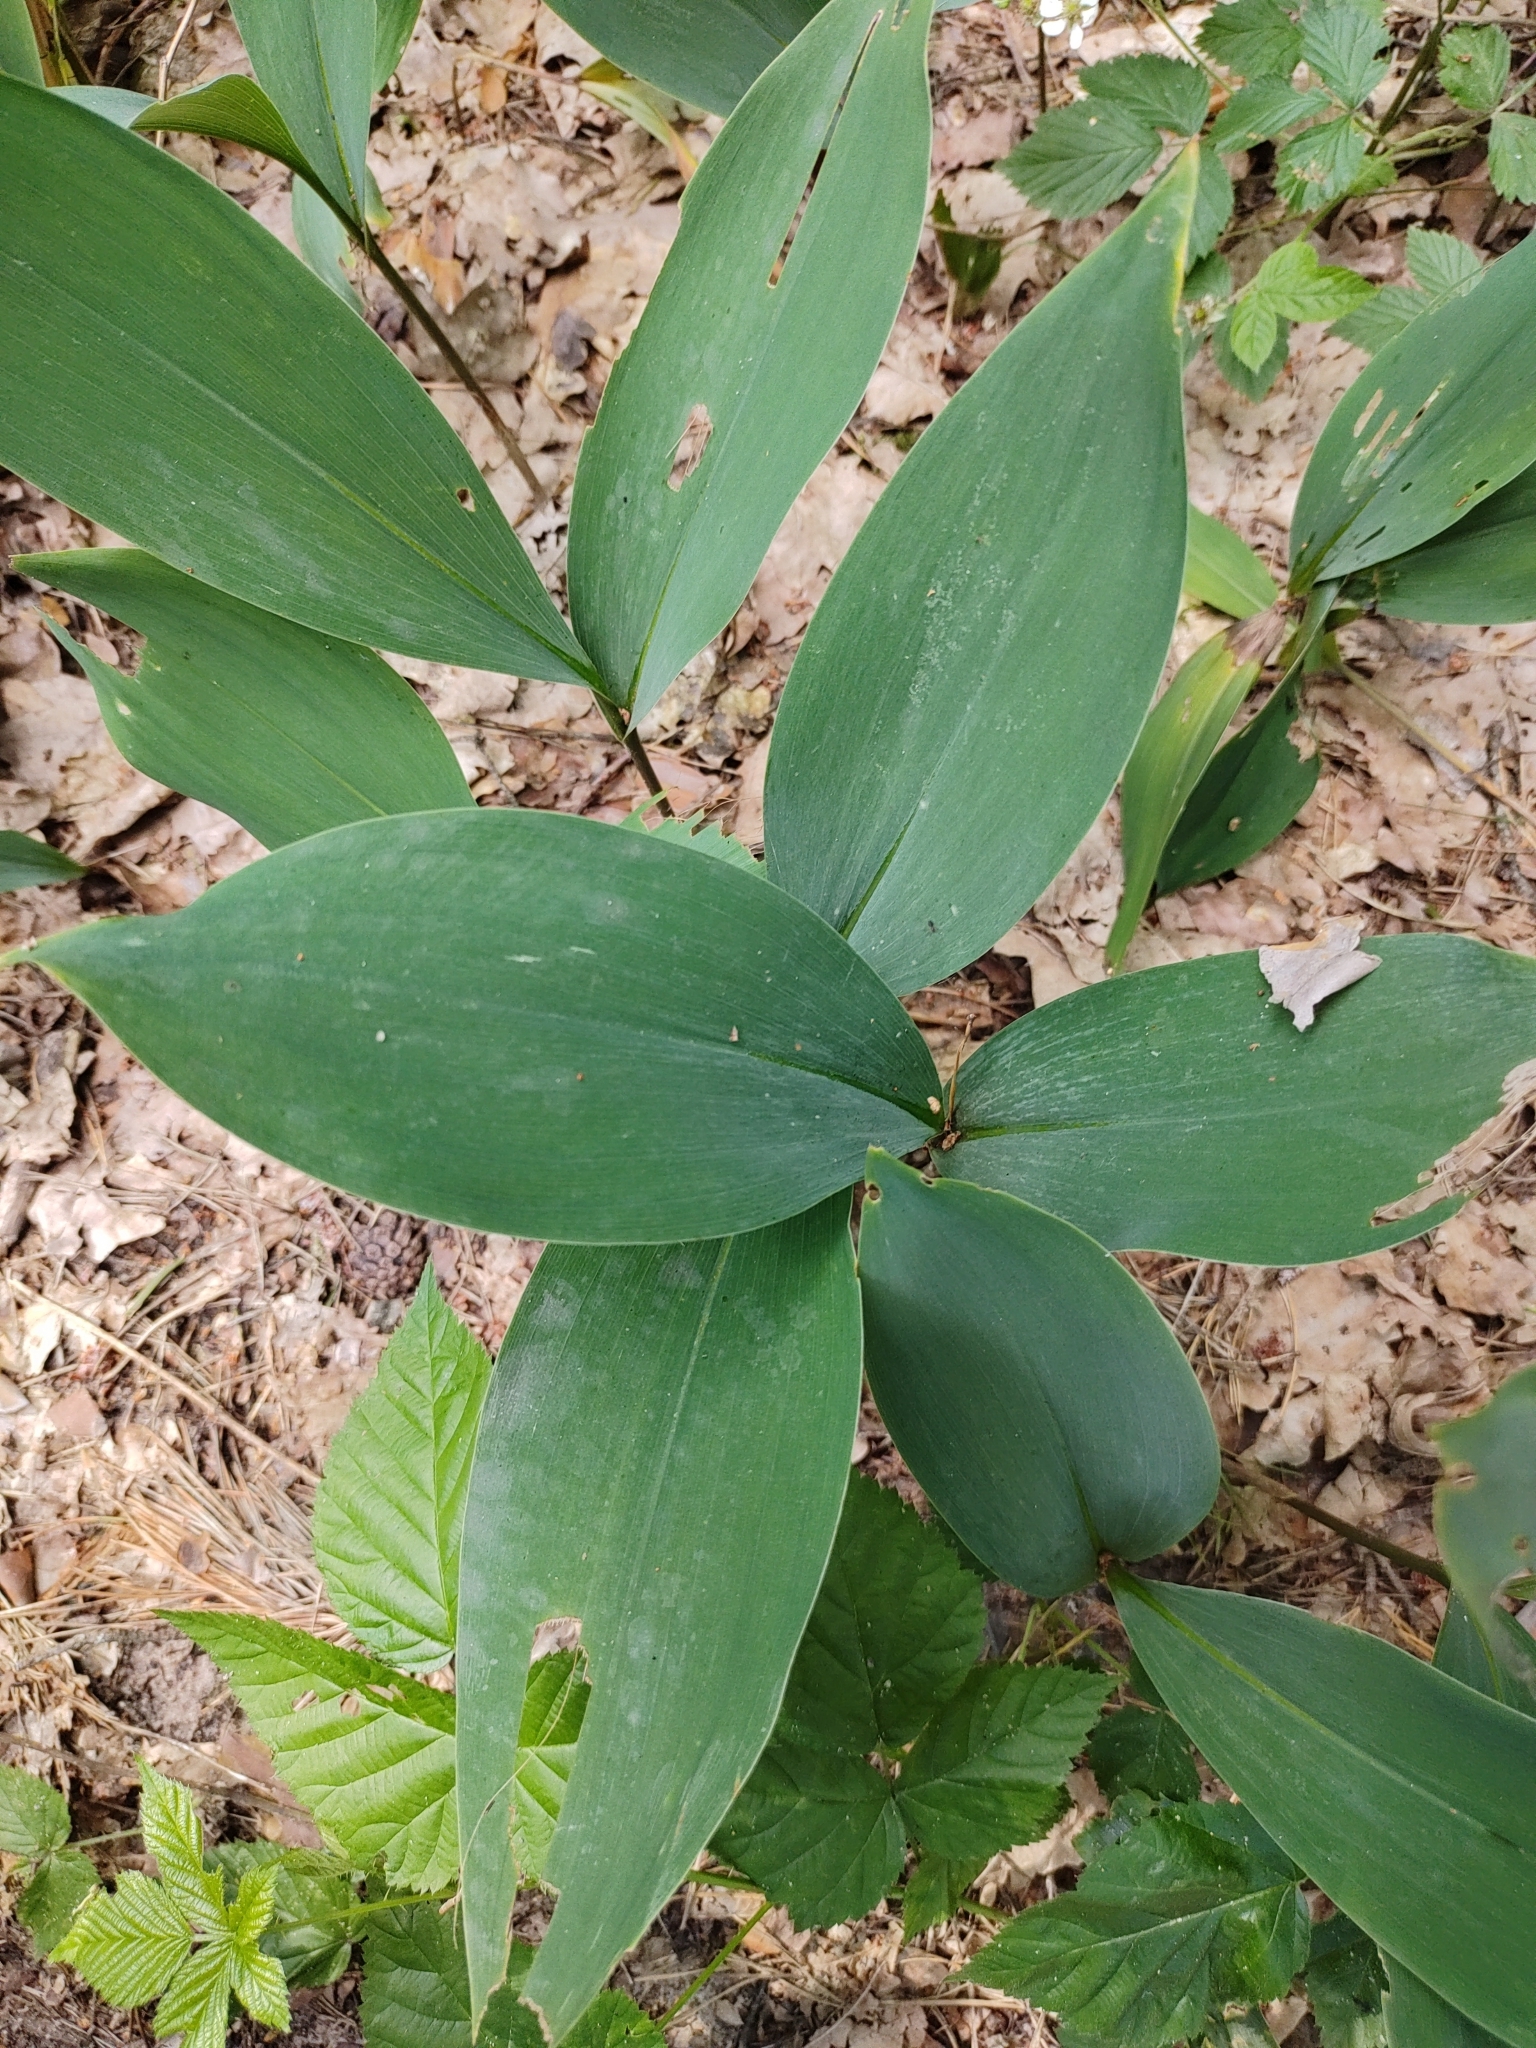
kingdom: Plantae
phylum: Tracheophyta
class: Liliopsida
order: Asparagales
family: Asparagaceae
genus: Convallaria
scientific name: Convallaria majalis
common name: Lily-of-the-valley
